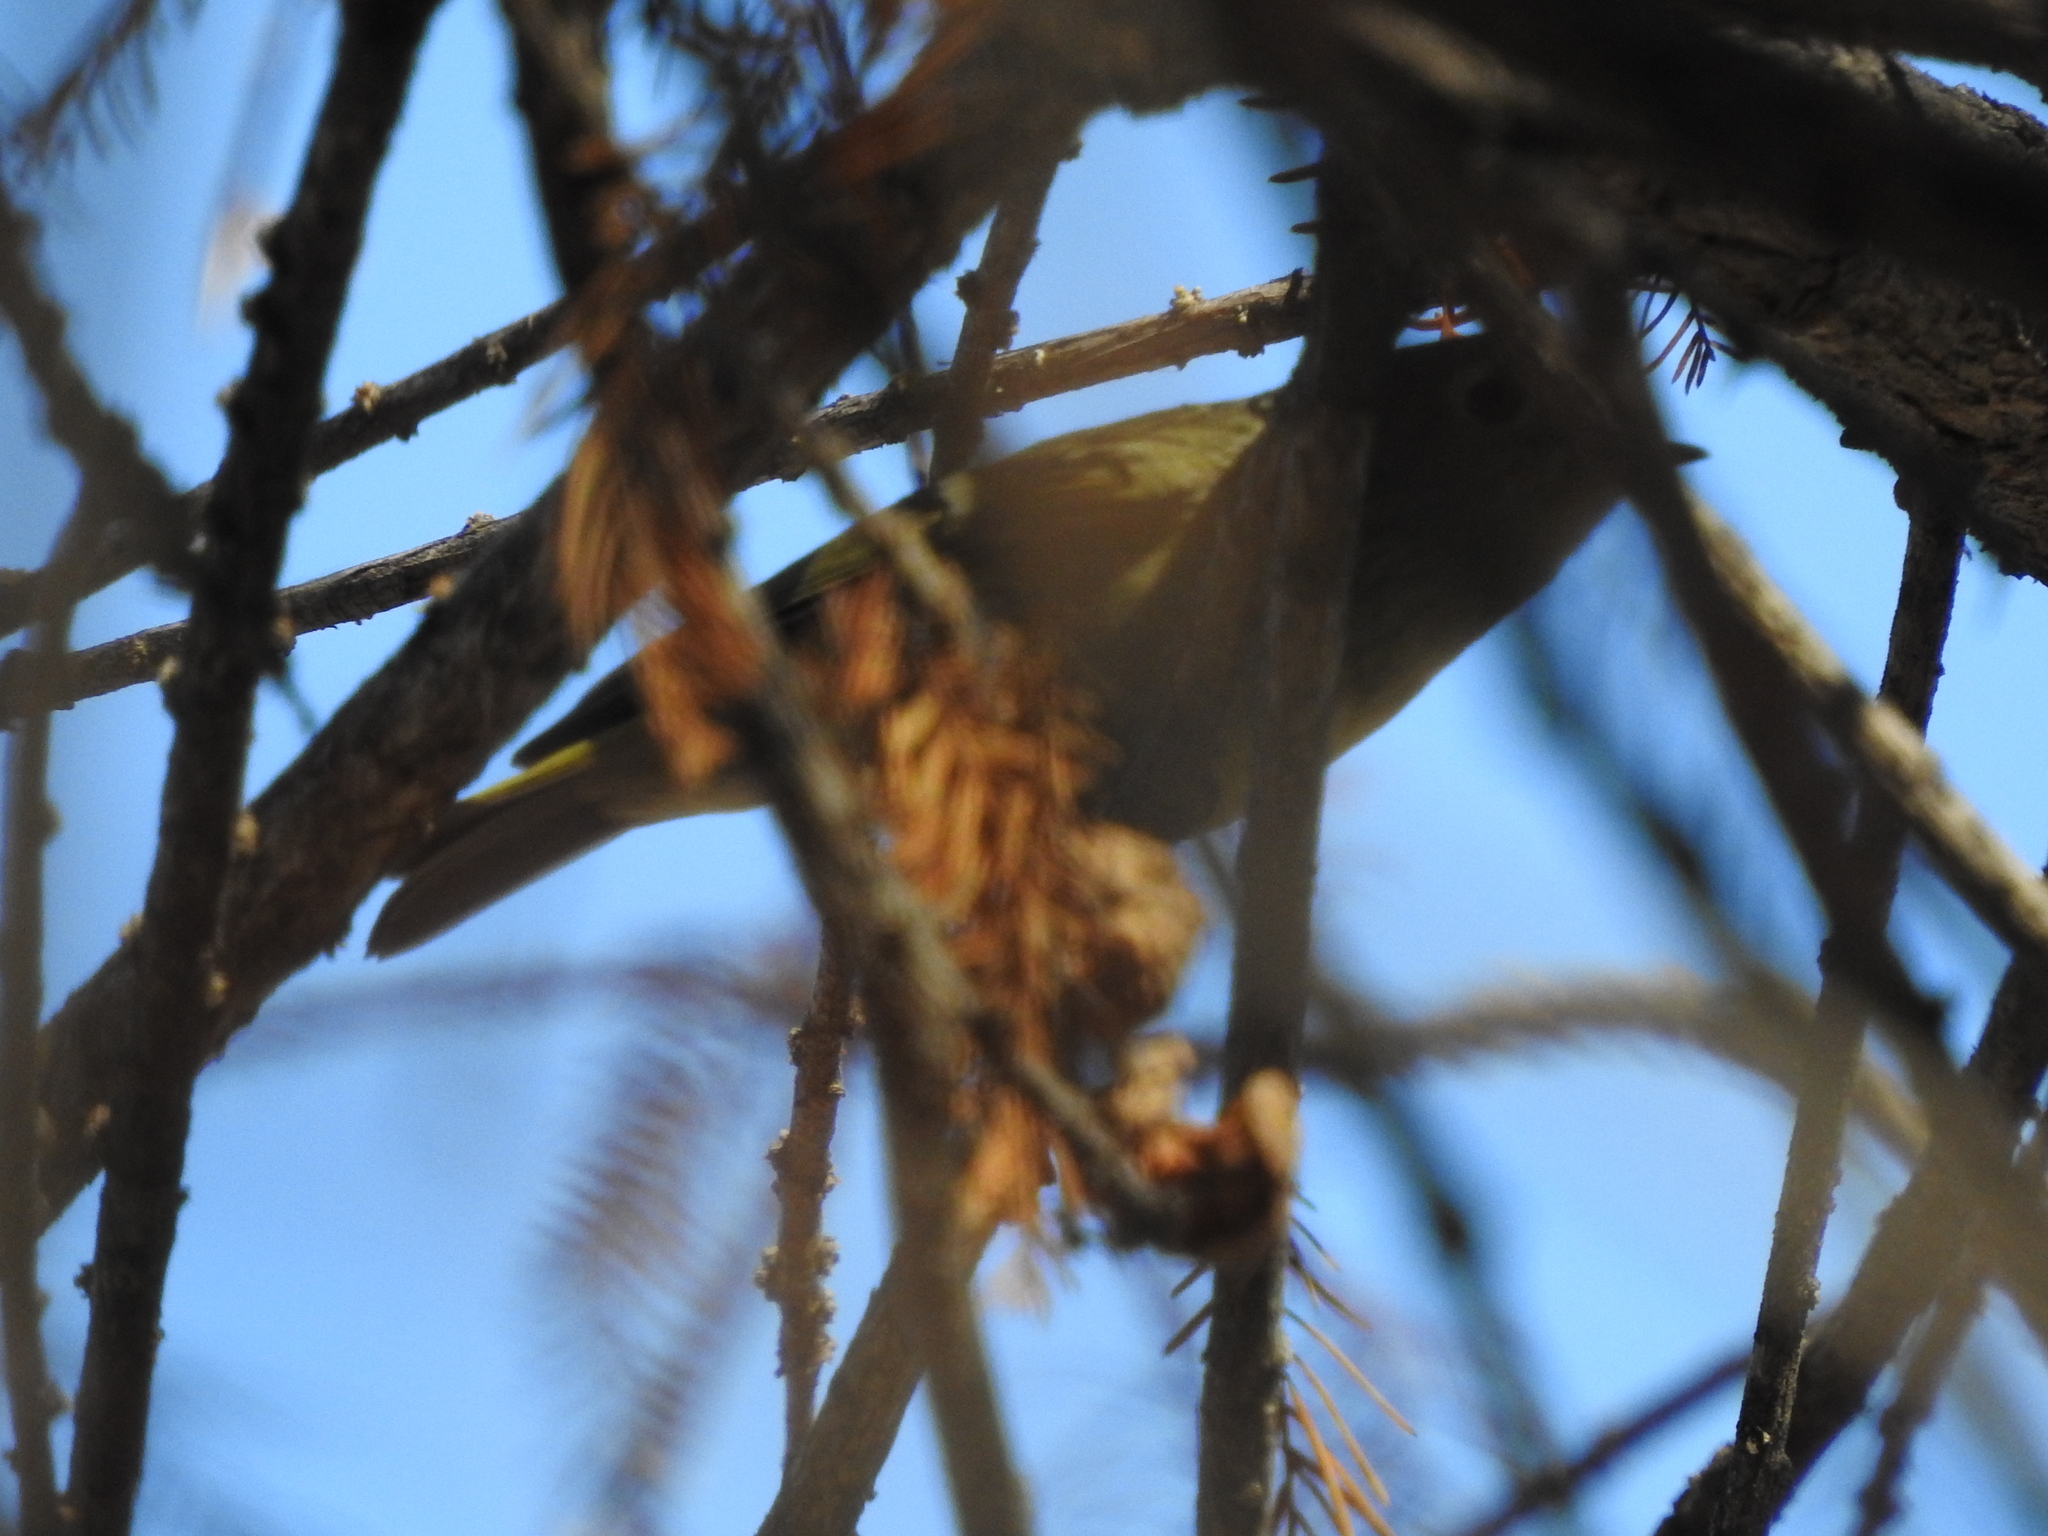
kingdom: Animalia
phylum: Chordata
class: Aves
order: Passeriformes
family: Regulidae
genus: Regulus
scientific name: Regulus calendula
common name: Ruby-crowned kinglet
